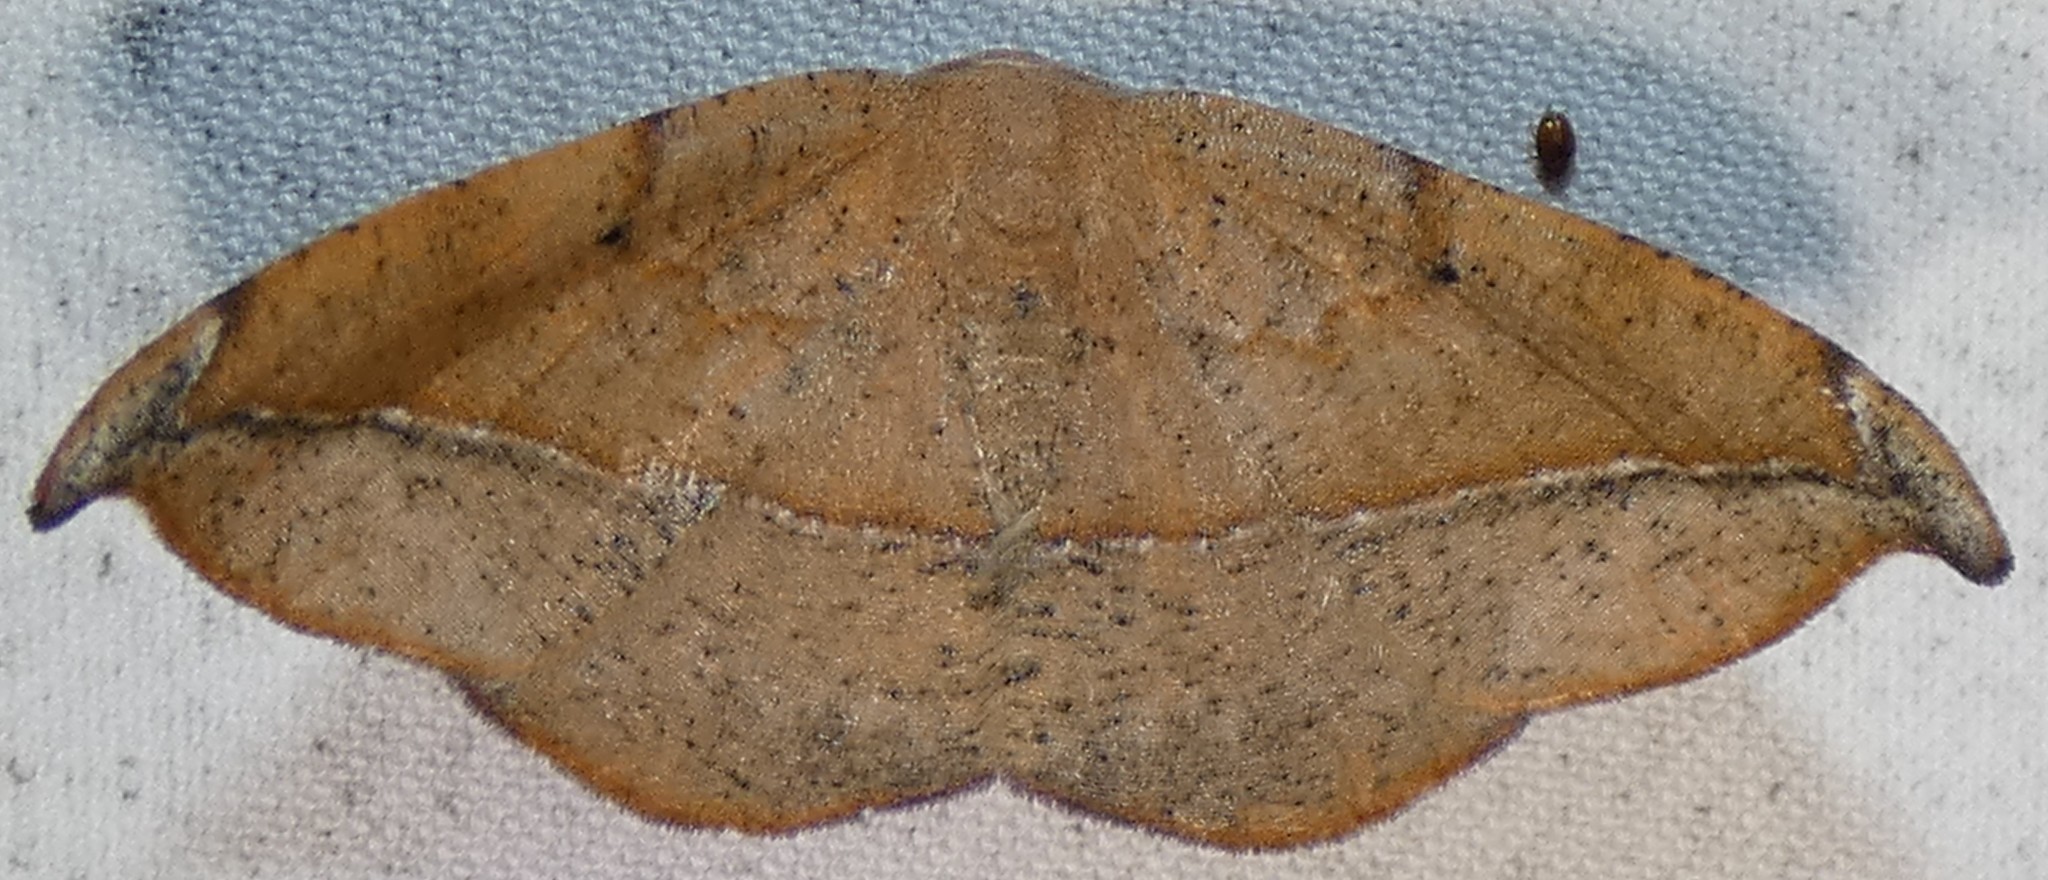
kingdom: Animalia
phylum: Arthropoda
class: Insecta
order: Lepidoptera
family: Geometridae
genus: Patalene
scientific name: Patalene olyzonaria
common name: Juniper geometer moth
